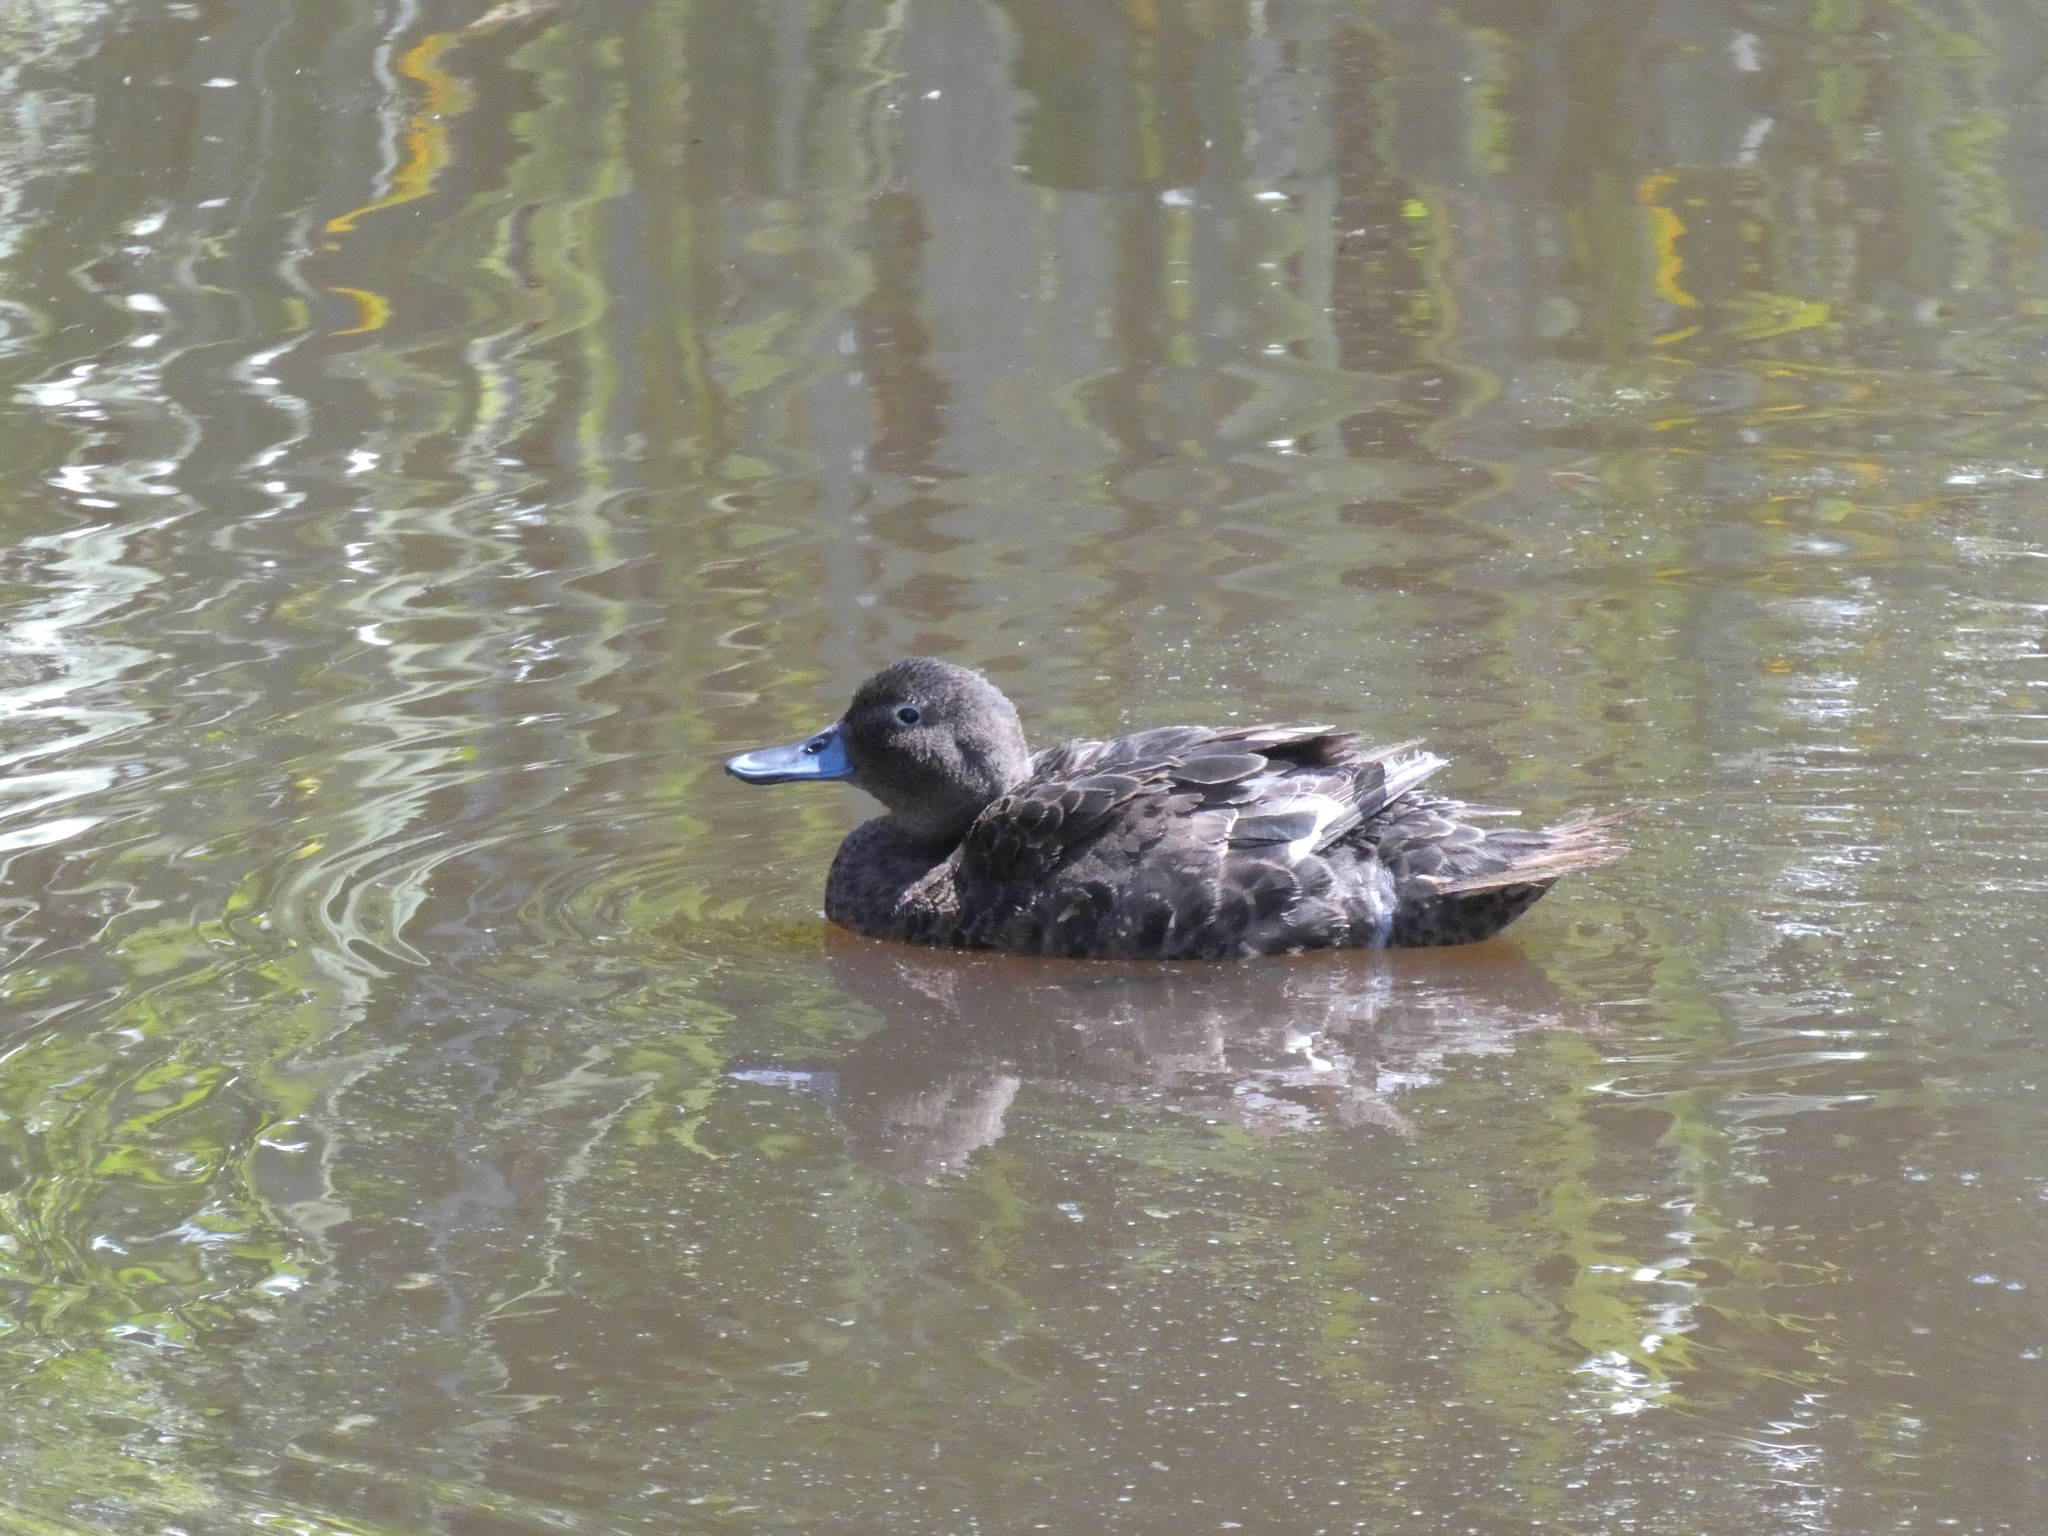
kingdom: Animalia
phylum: Chordata
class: Aves
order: Anseriformes
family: Anatidae
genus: Anas
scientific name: Anas chlorotis
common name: Brown teal
